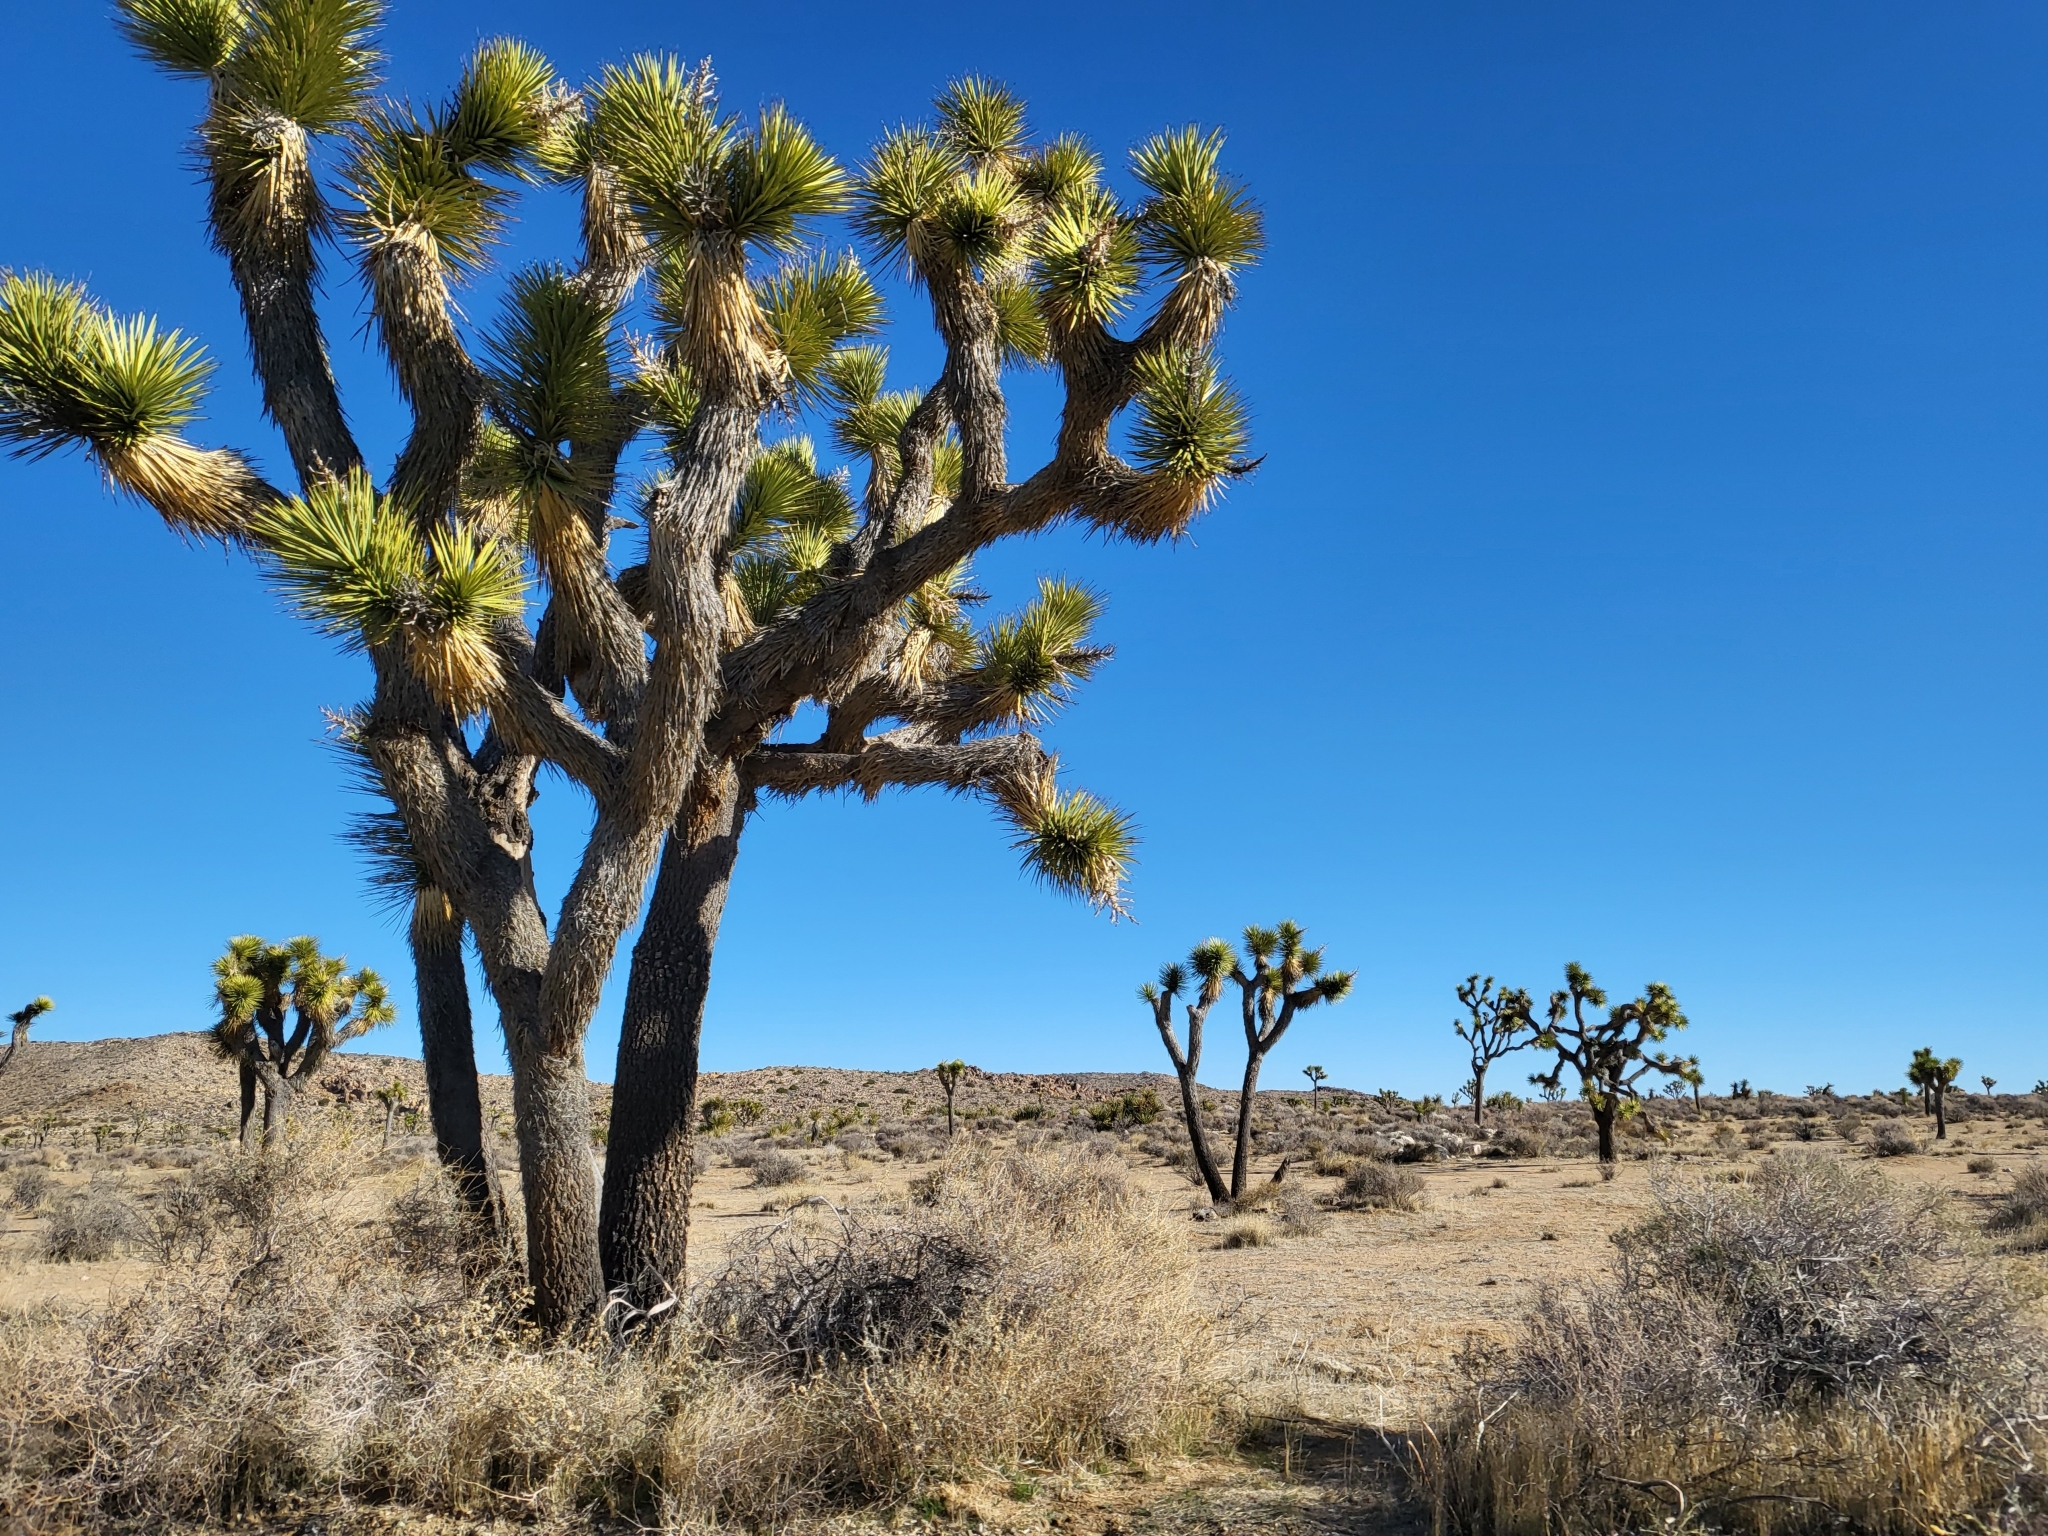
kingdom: Plantae
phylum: Tracheophyta
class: Liliopsida
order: Asparagales
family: Asparagaceae
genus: Yucca
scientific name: Yucca brevifolia
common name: Joshua tree
